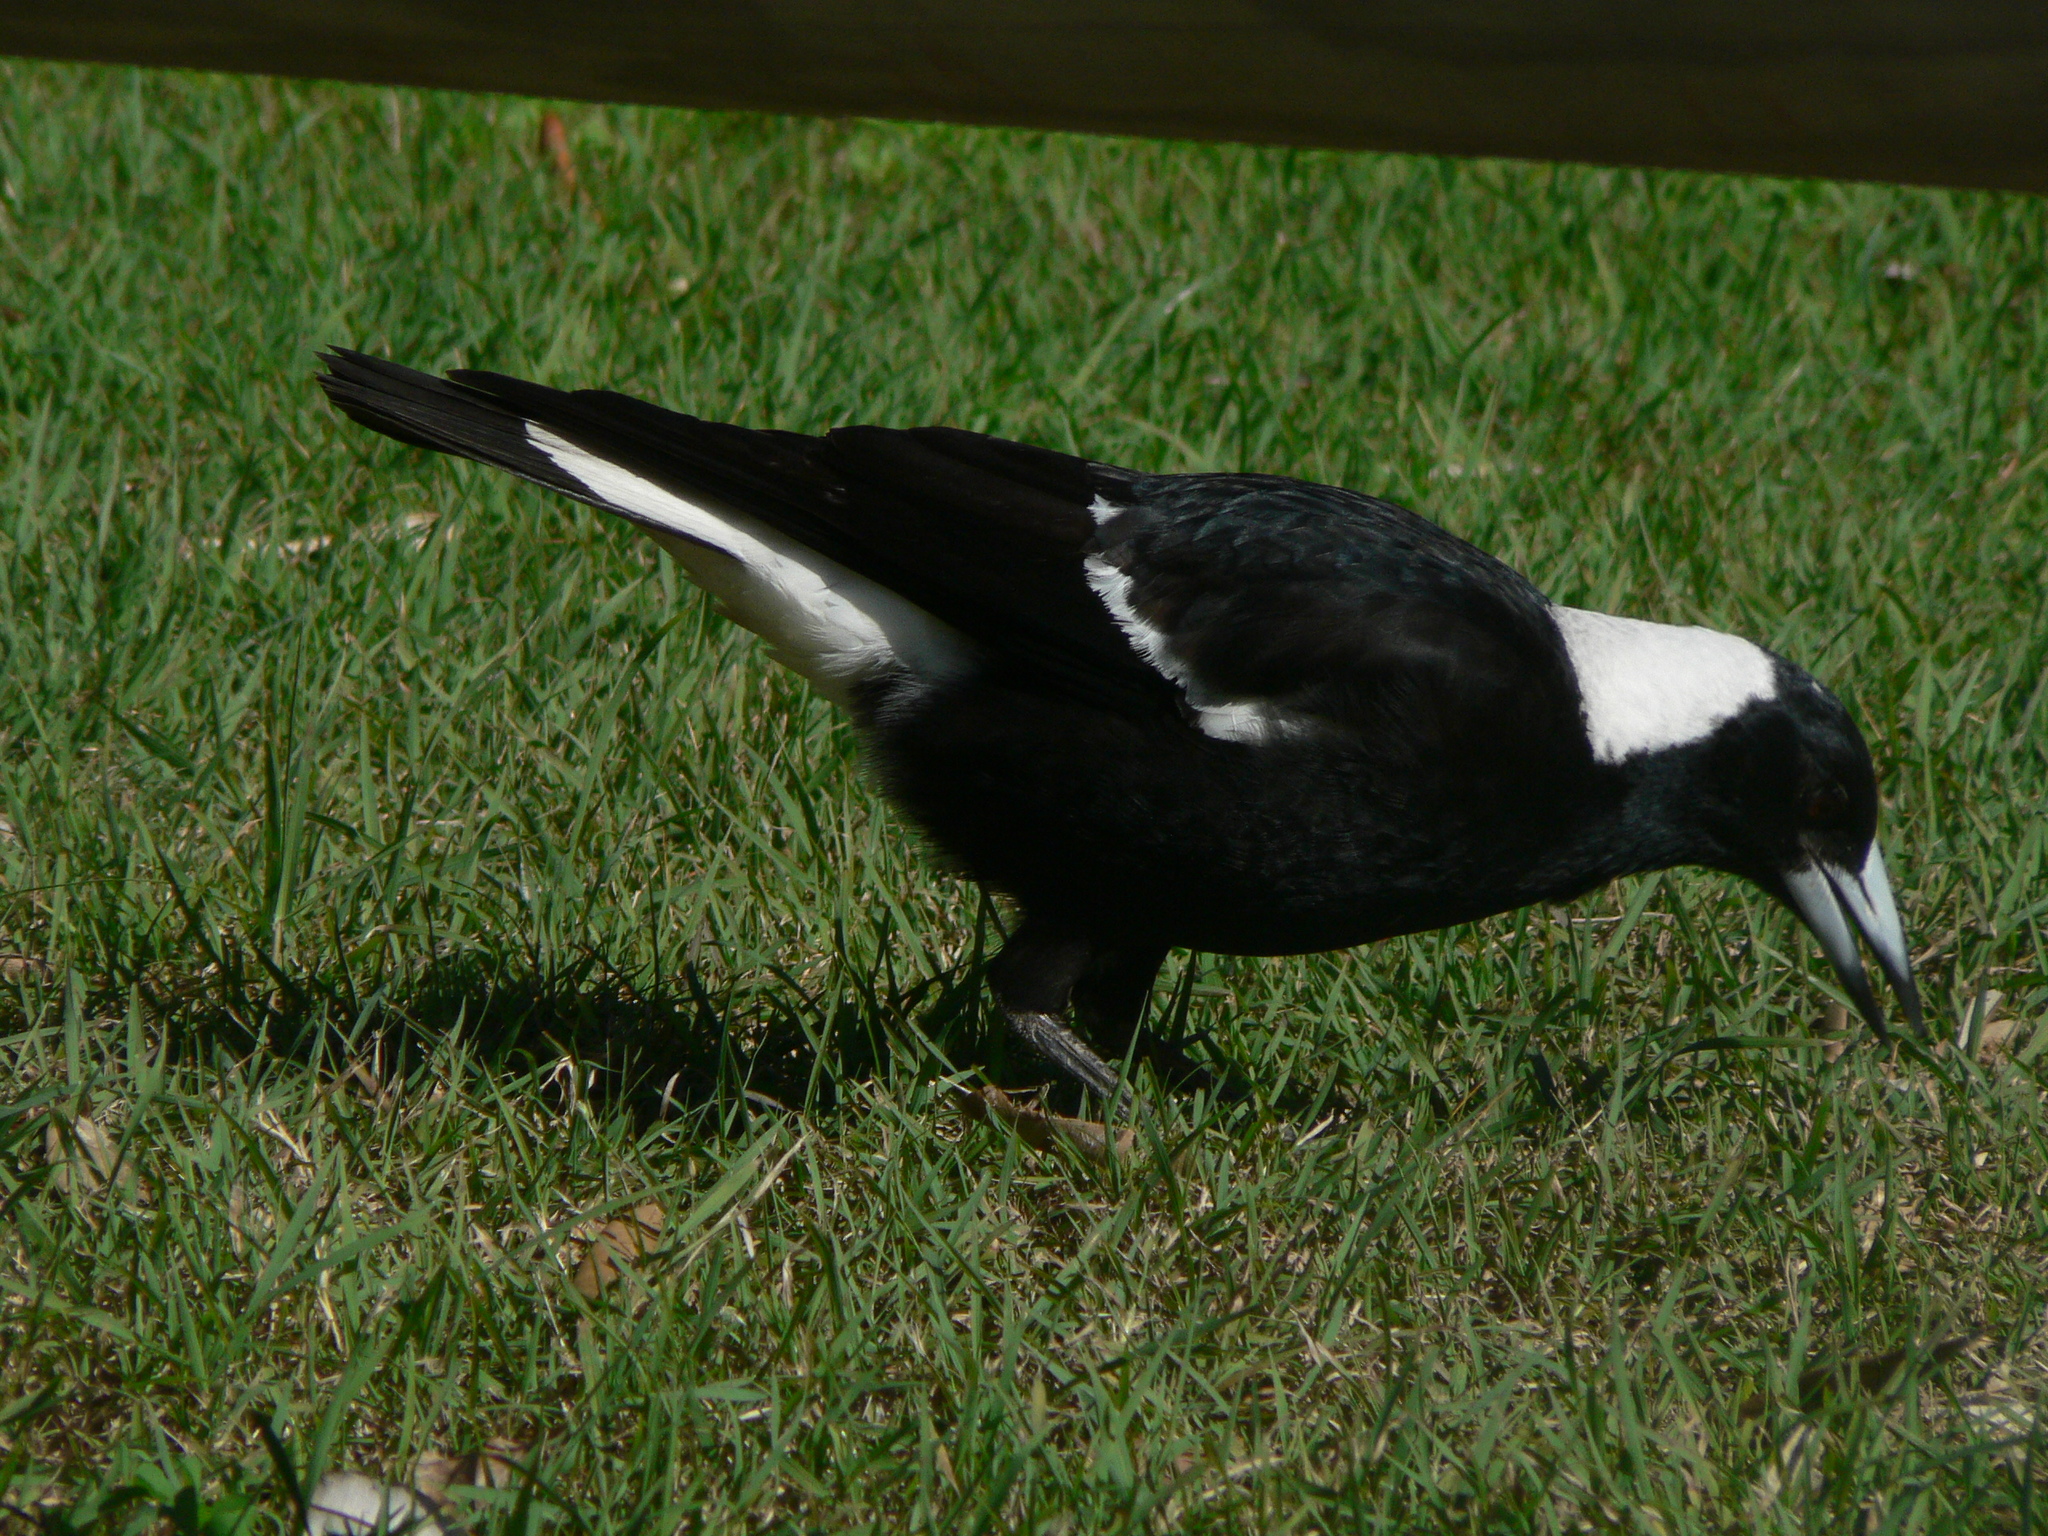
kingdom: Animalia
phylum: Chordata
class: Aves
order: Passeriformes
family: Cracticidae
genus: Gymnorhina
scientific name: Gymnorhina tibicen
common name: Australian magpie
